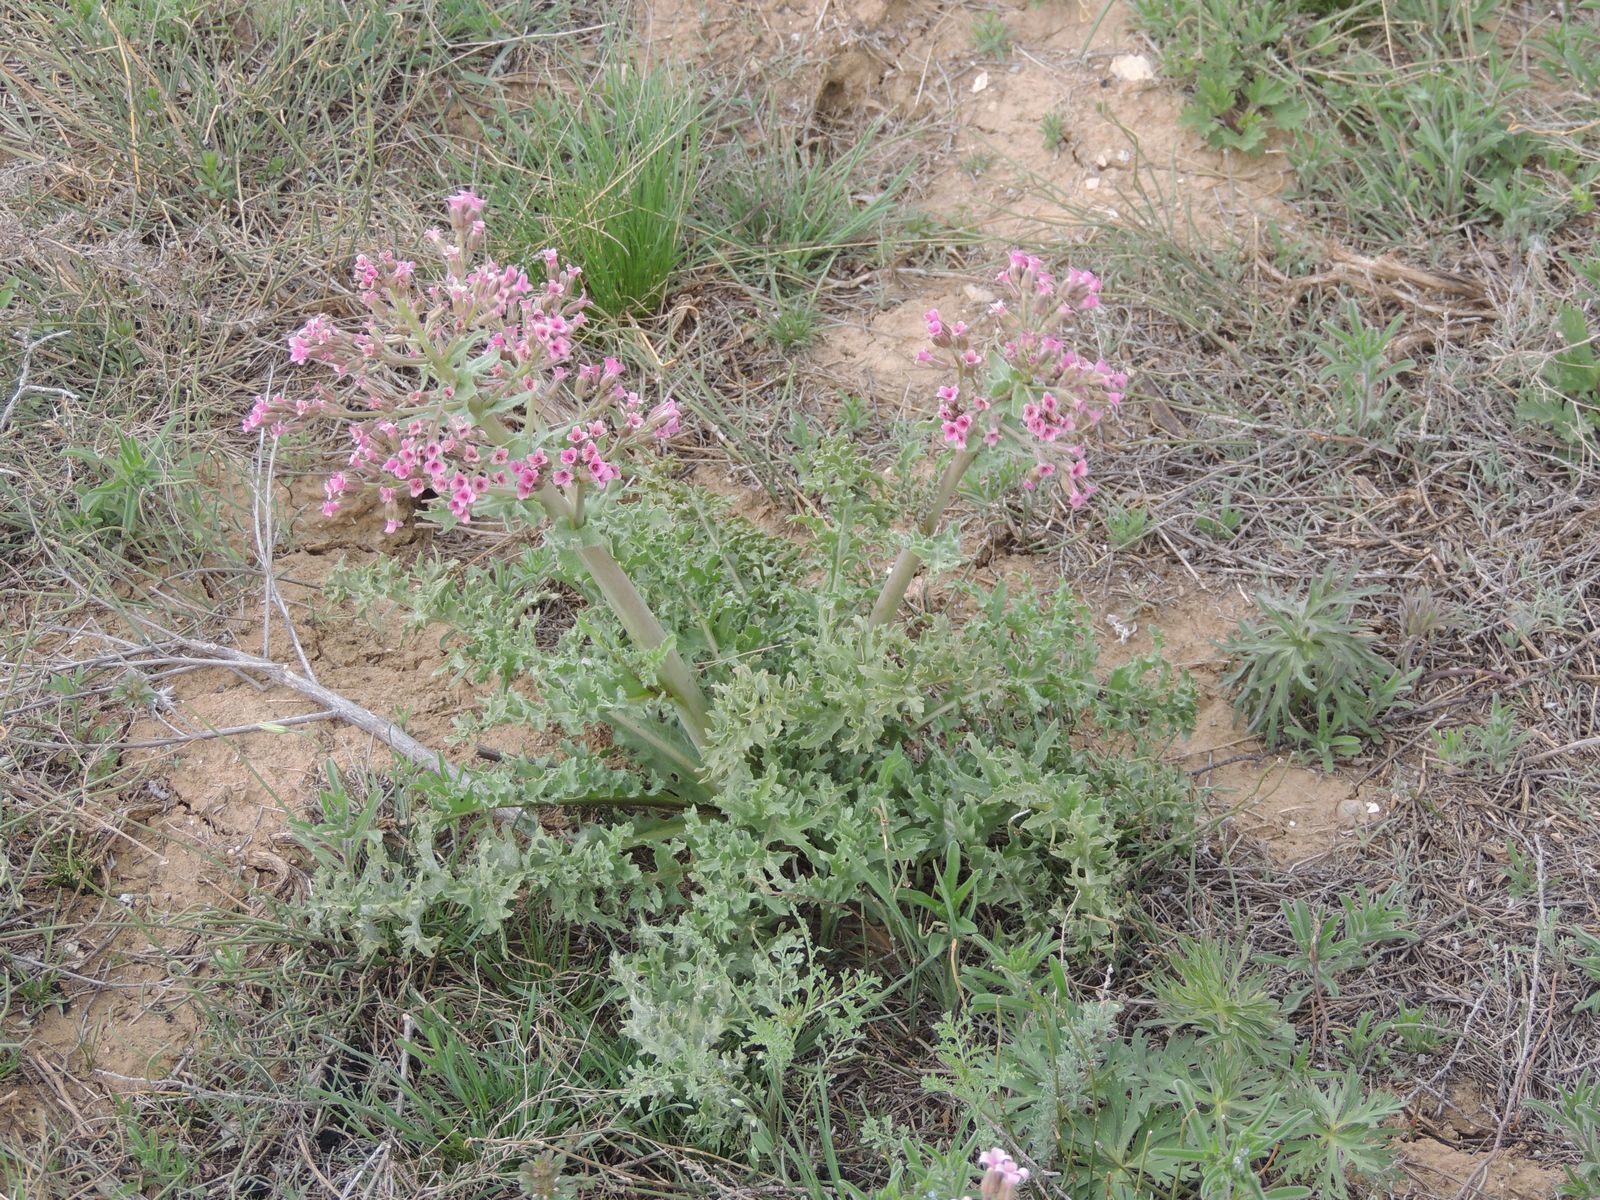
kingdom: Plantae
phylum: Tracheophyta
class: Magnoliopsida
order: Brassicales
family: Brassicaceae
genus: Megacarpaea
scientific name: Megacarpaea megalocarpa
